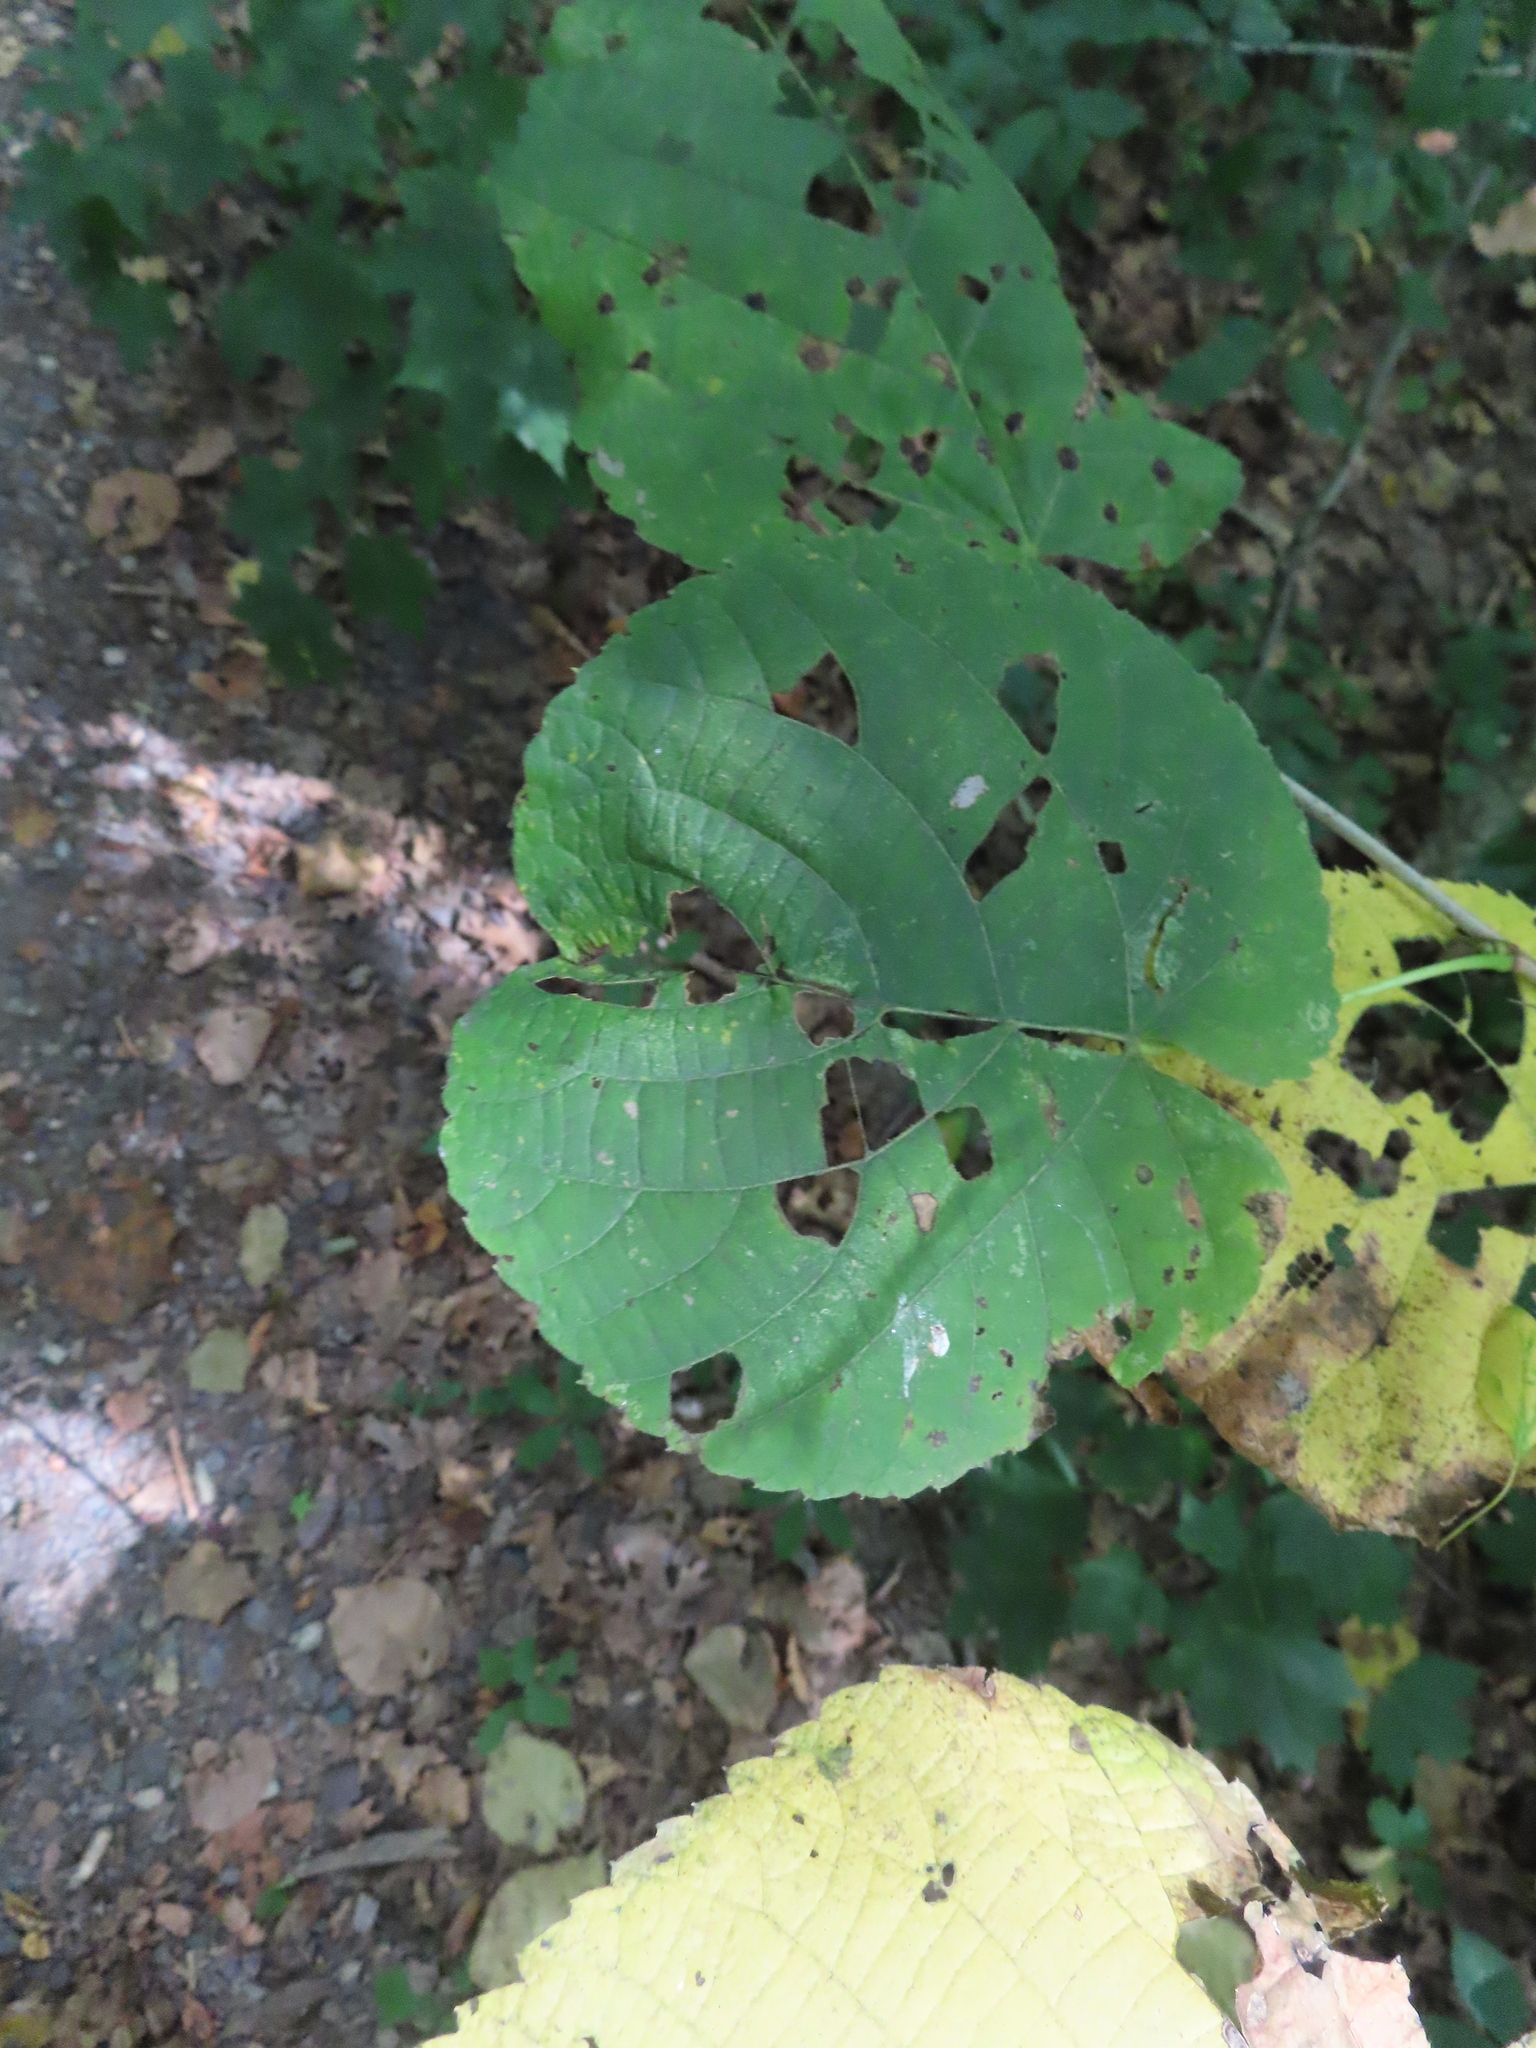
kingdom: Plantae
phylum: Tracheophyta
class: Magnoliopsida
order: Malvales
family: Malvaceae
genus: Tilia
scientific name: Tilia americana
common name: Basswood
